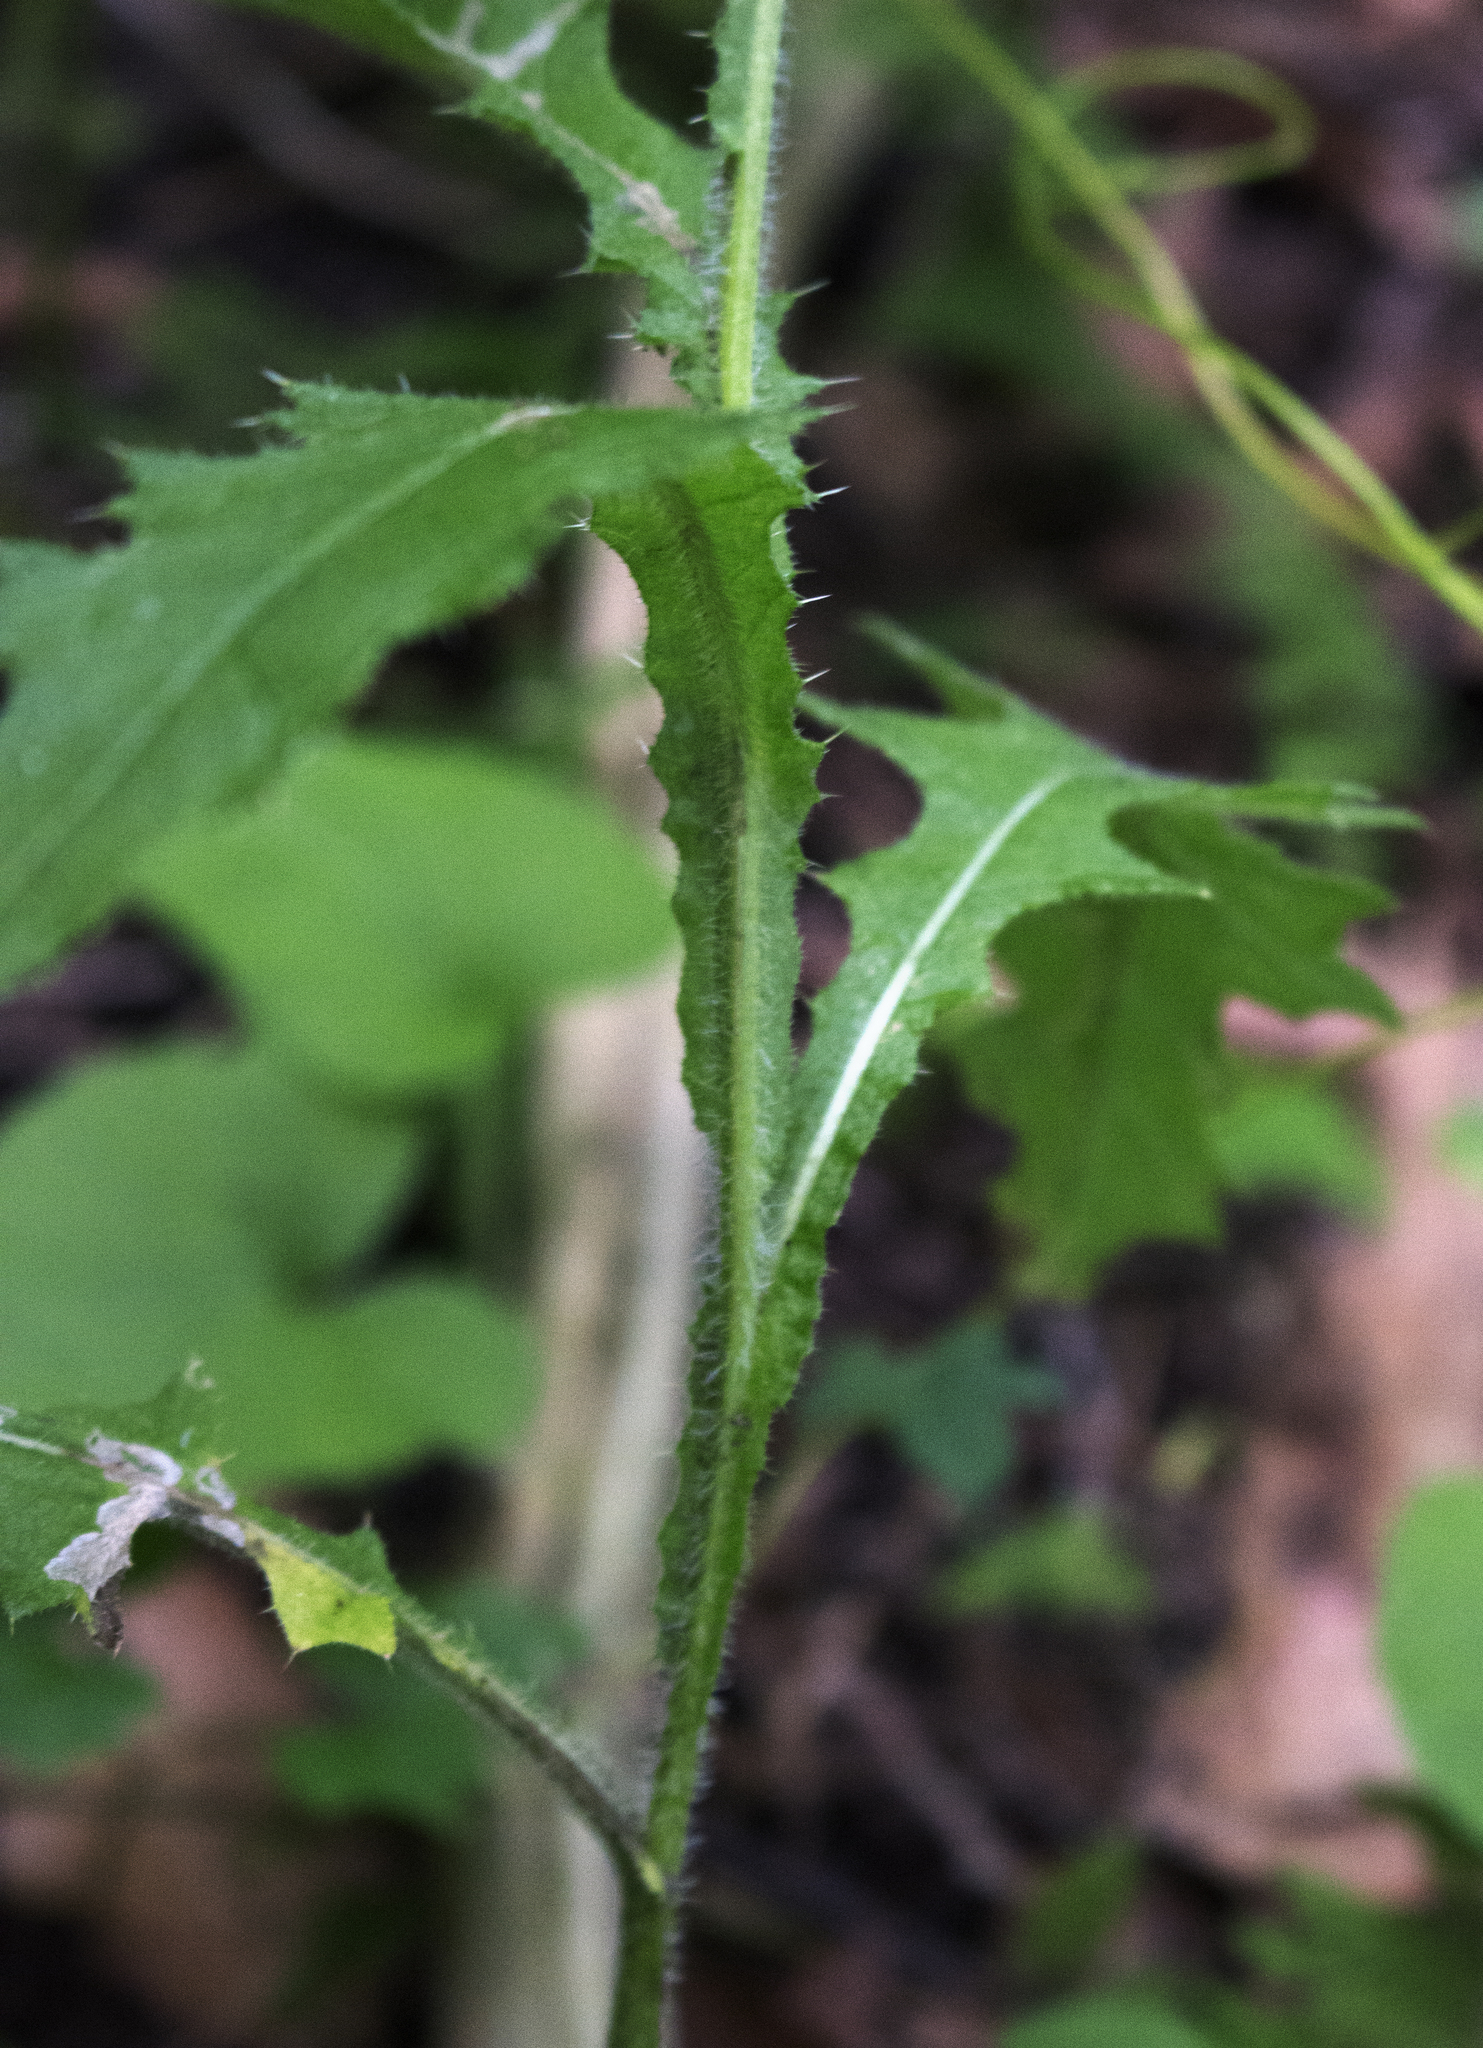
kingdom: Plantae
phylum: Tracheophyta
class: Magnoliopsida
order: Asterales
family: Asteraceae
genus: Cirsium
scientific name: Cirsium vulgare
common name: Bull thistle
